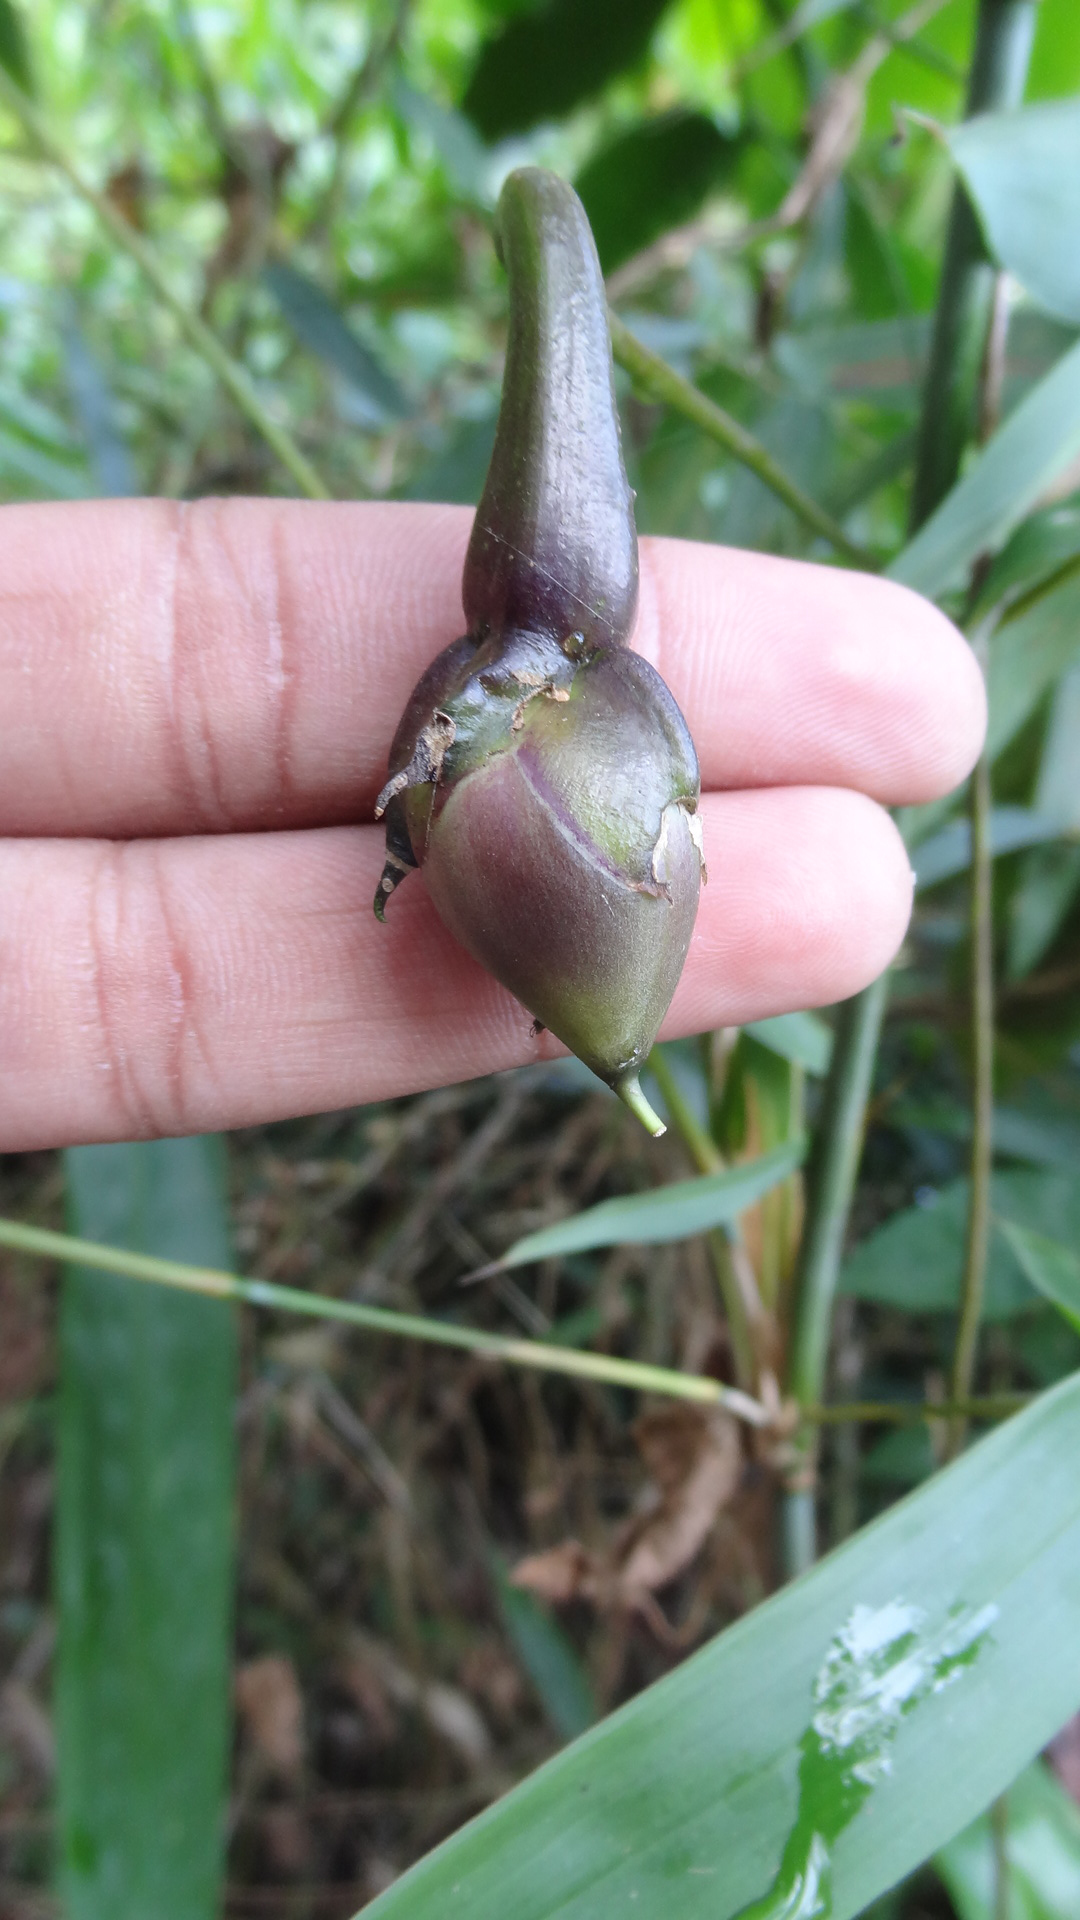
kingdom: Plantae
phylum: Tracheophyta
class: Magnoliopsida
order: Solanales
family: Convolvulaceae
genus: Ipomoea
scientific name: Ipomoea alba
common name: Moonflower
